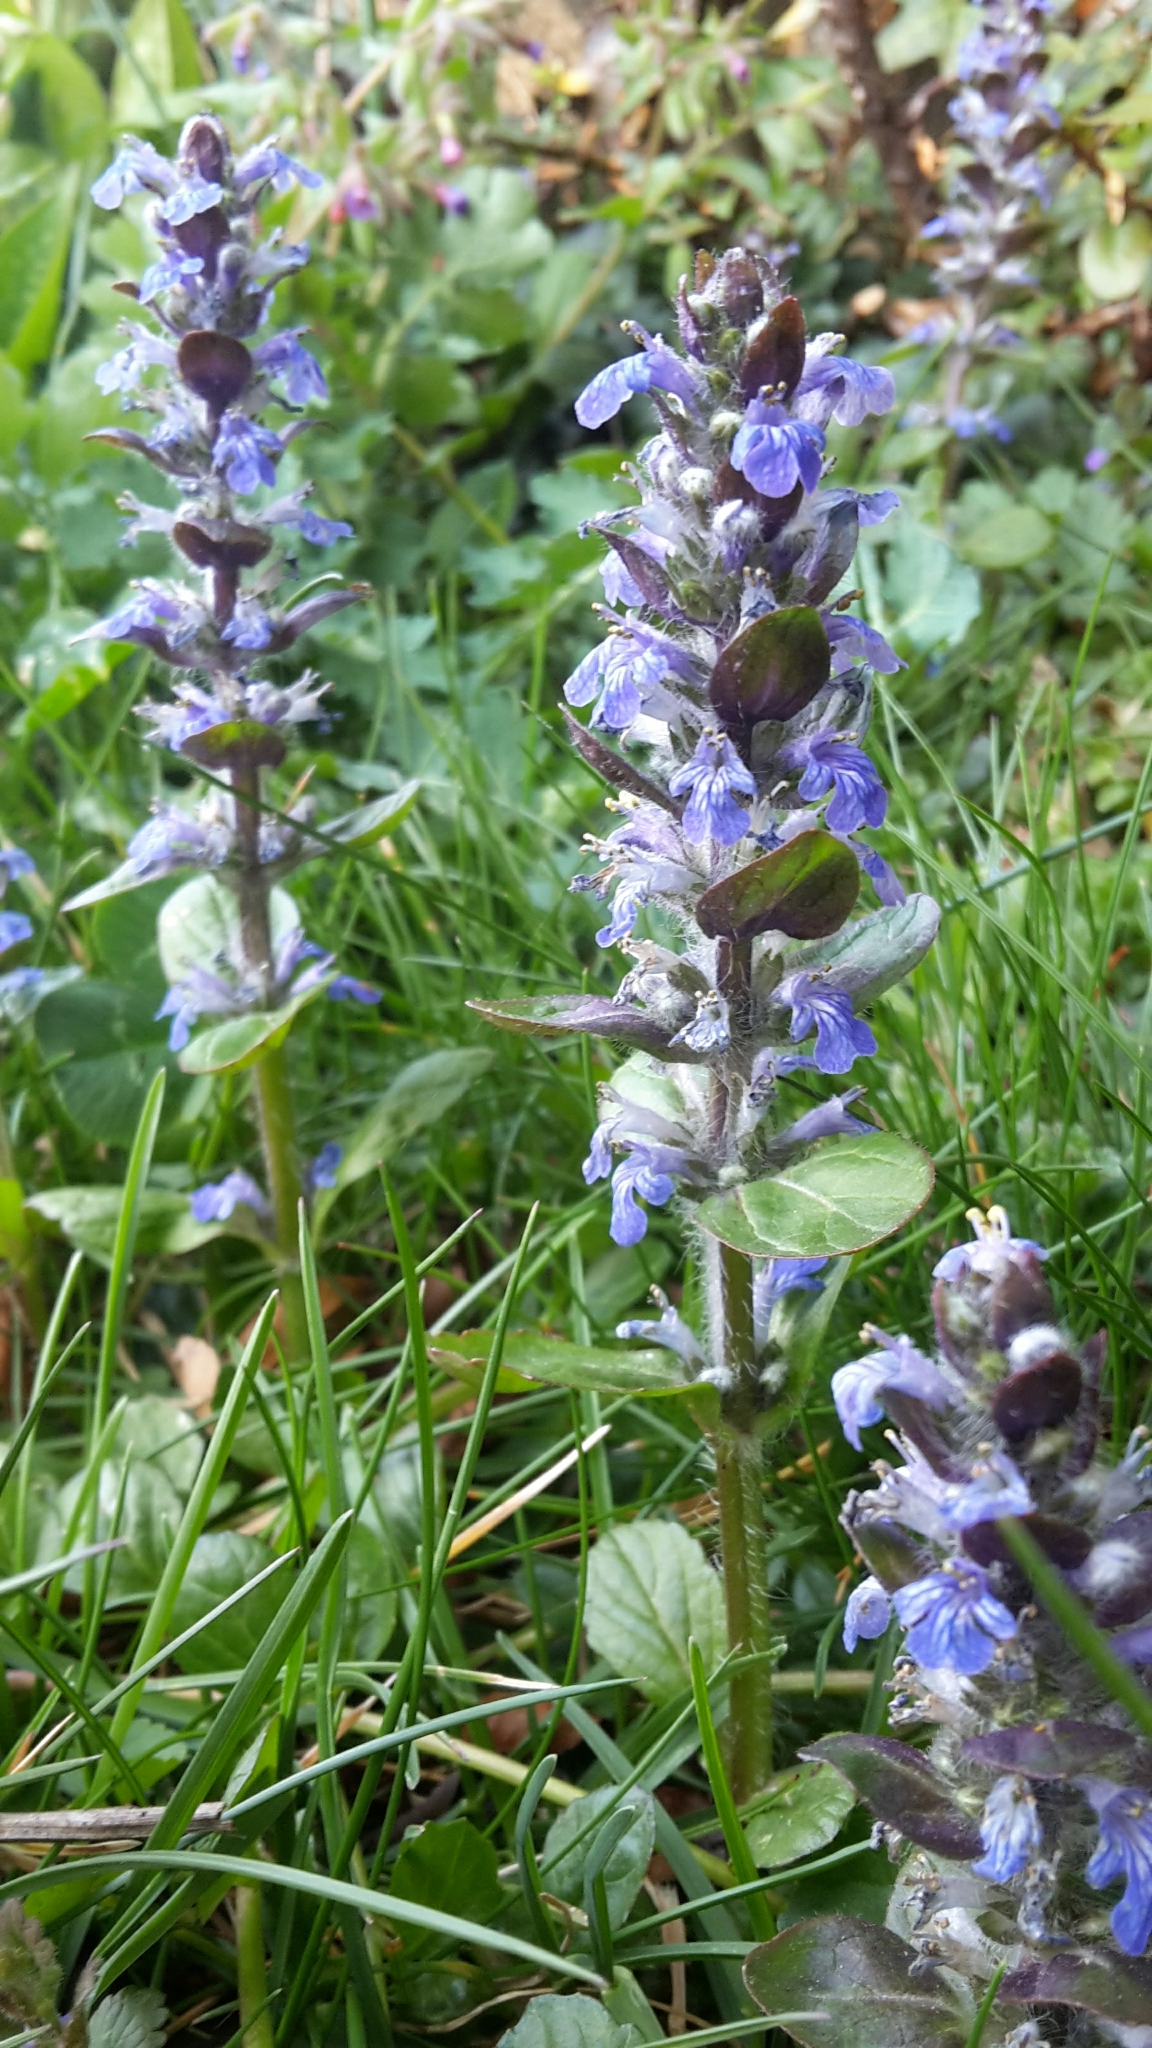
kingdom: Plantae
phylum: Tracheophyta
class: Magnoliopsida
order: Lamiales
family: Lamiaceae
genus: Ajuga
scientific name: Ajuga reptans
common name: Bugle
